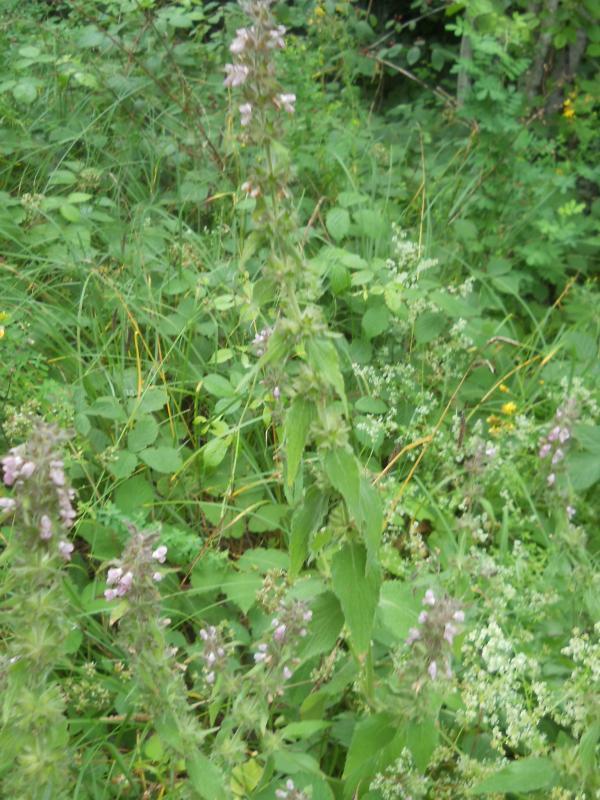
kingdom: Plantae
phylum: Tracheophyta
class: Magnoliopsida
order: Lamiales
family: Lamiaceae
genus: Stachys
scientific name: Stachys alpina
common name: Limestone woundwort
